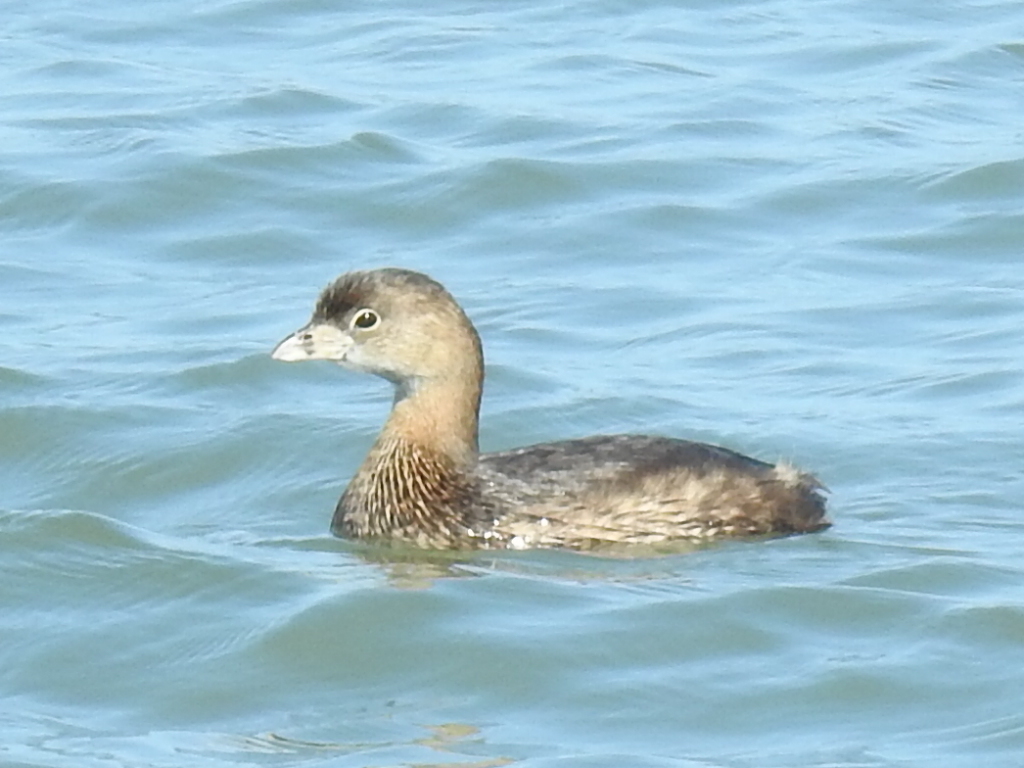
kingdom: Animalia
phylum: Chordata
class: Aves
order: Podicipediformes
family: Podicipedidae
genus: Podilymbus
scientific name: Podilymbus podiceps
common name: Pied-billed grebe
